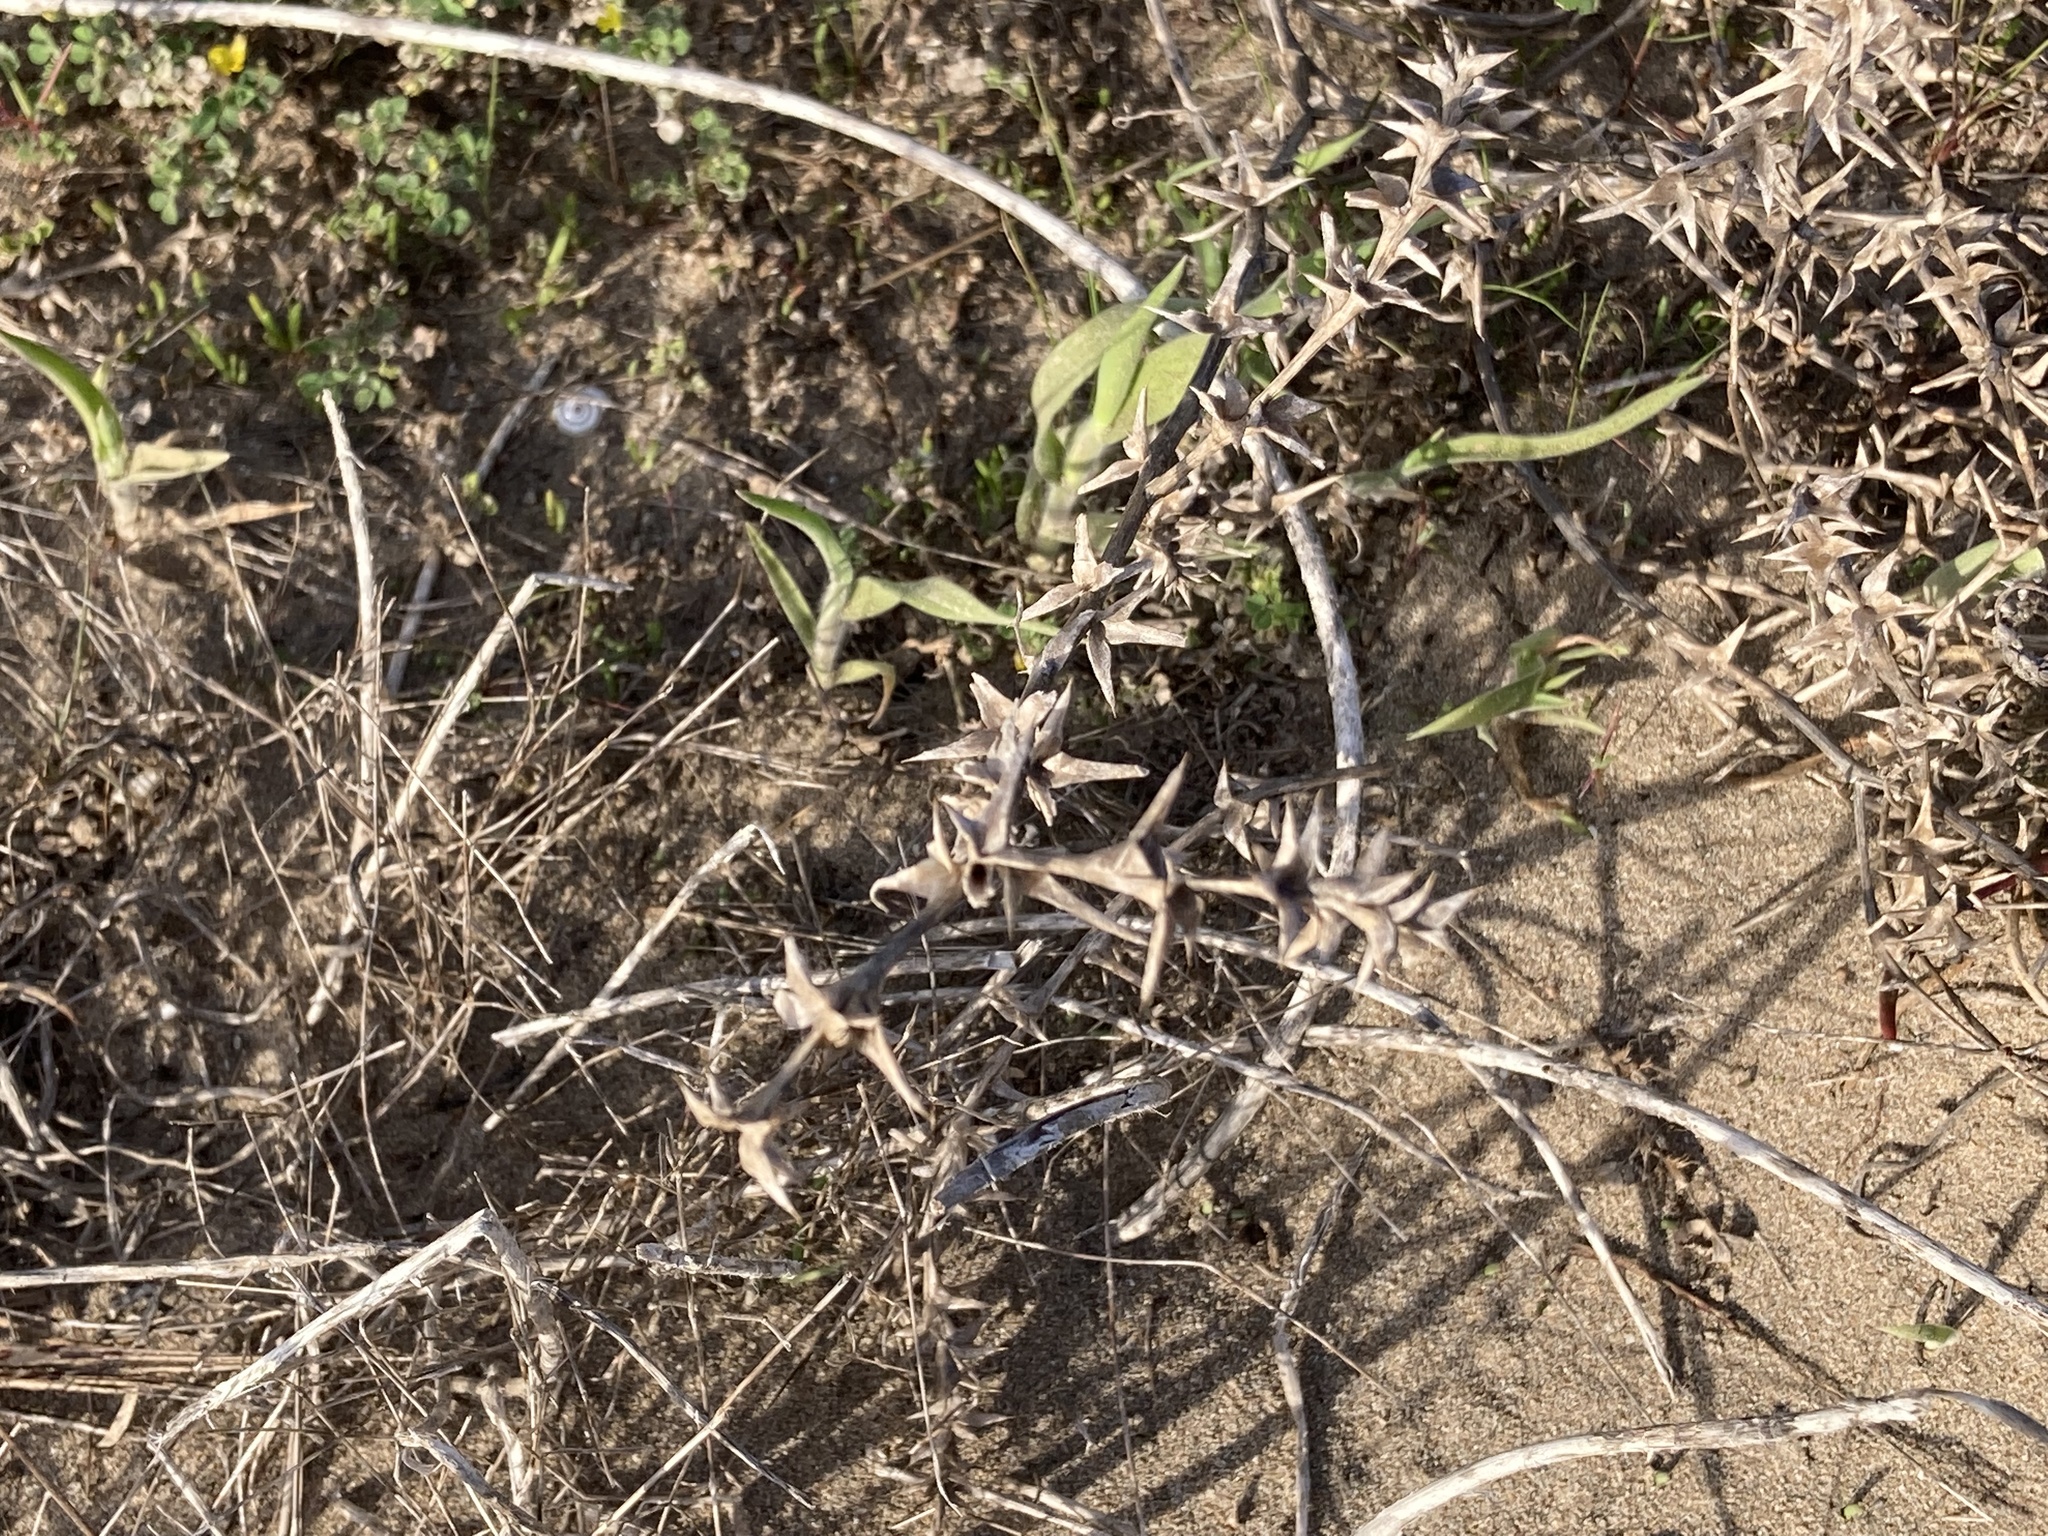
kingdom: Plantae
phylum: Tracheophyta
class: Magnoliopsida
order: Caryophyllales
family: Amaranthaceae
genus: Salsola
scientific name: Salsola kali
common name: Saltwort
